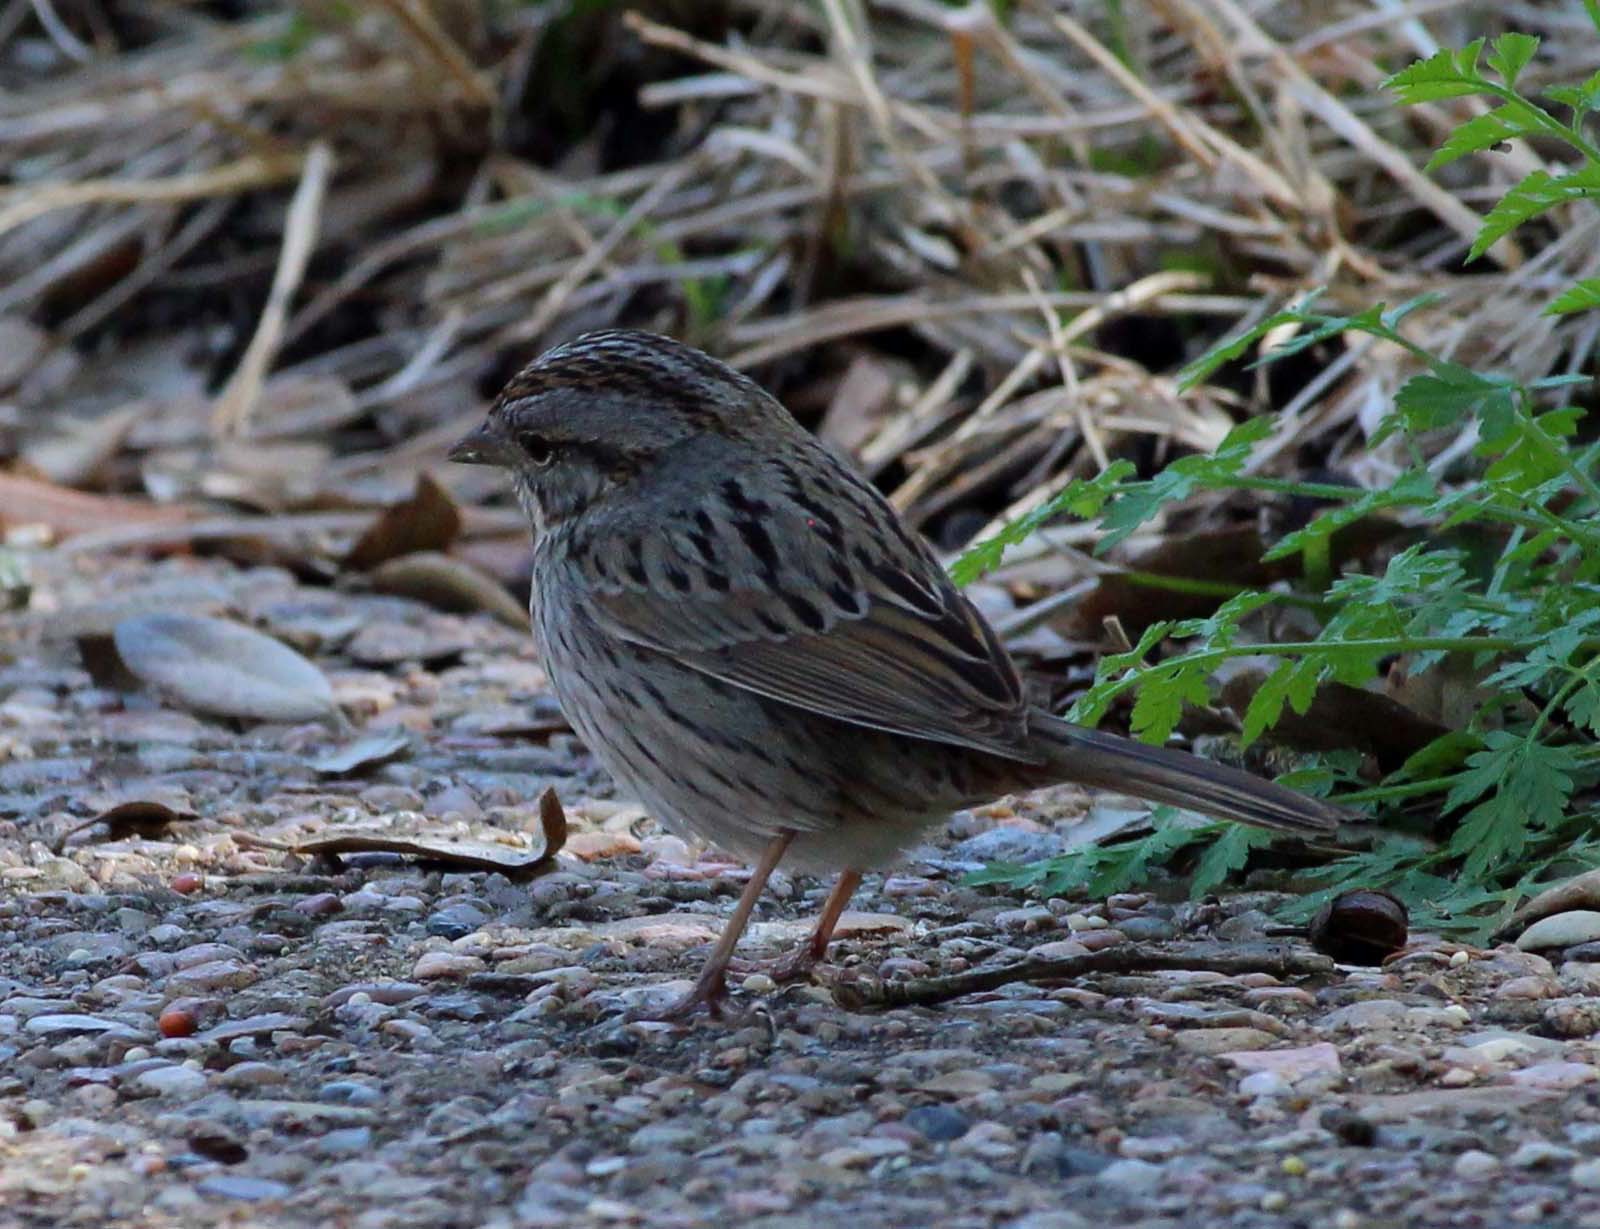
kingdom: Animalia
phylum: Chordata
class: Aves
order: Passeriformes
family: Passerellidae
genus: Melospiza
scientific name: Melospiza lincolnii
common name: Lincoln's sparrow
